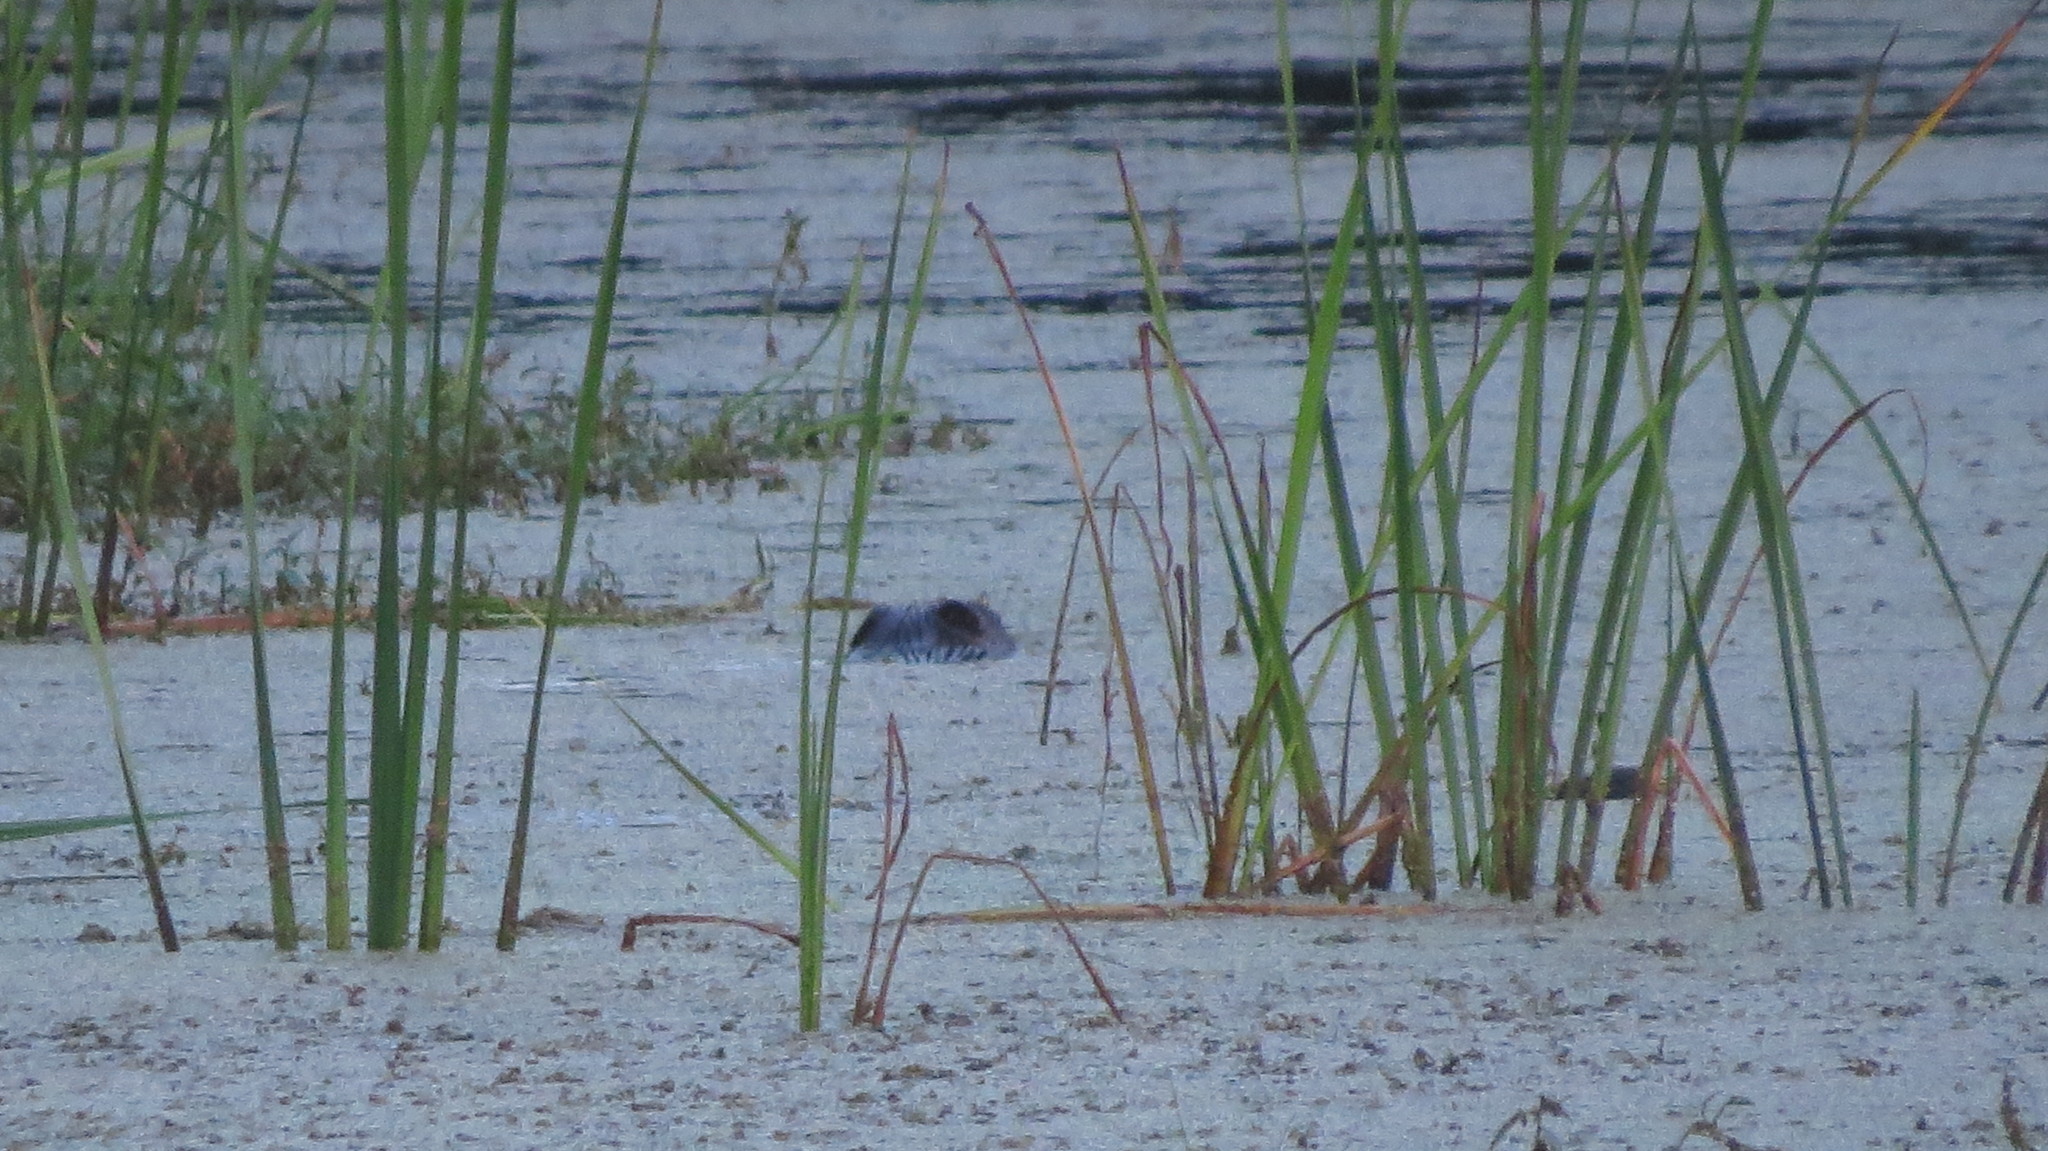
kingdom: Animalia
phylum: Chordata
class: Mammalia
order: Rodentia
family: Cricetidae
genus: Ondatra
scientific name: Ondatra zibethicus
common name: Muskrat
